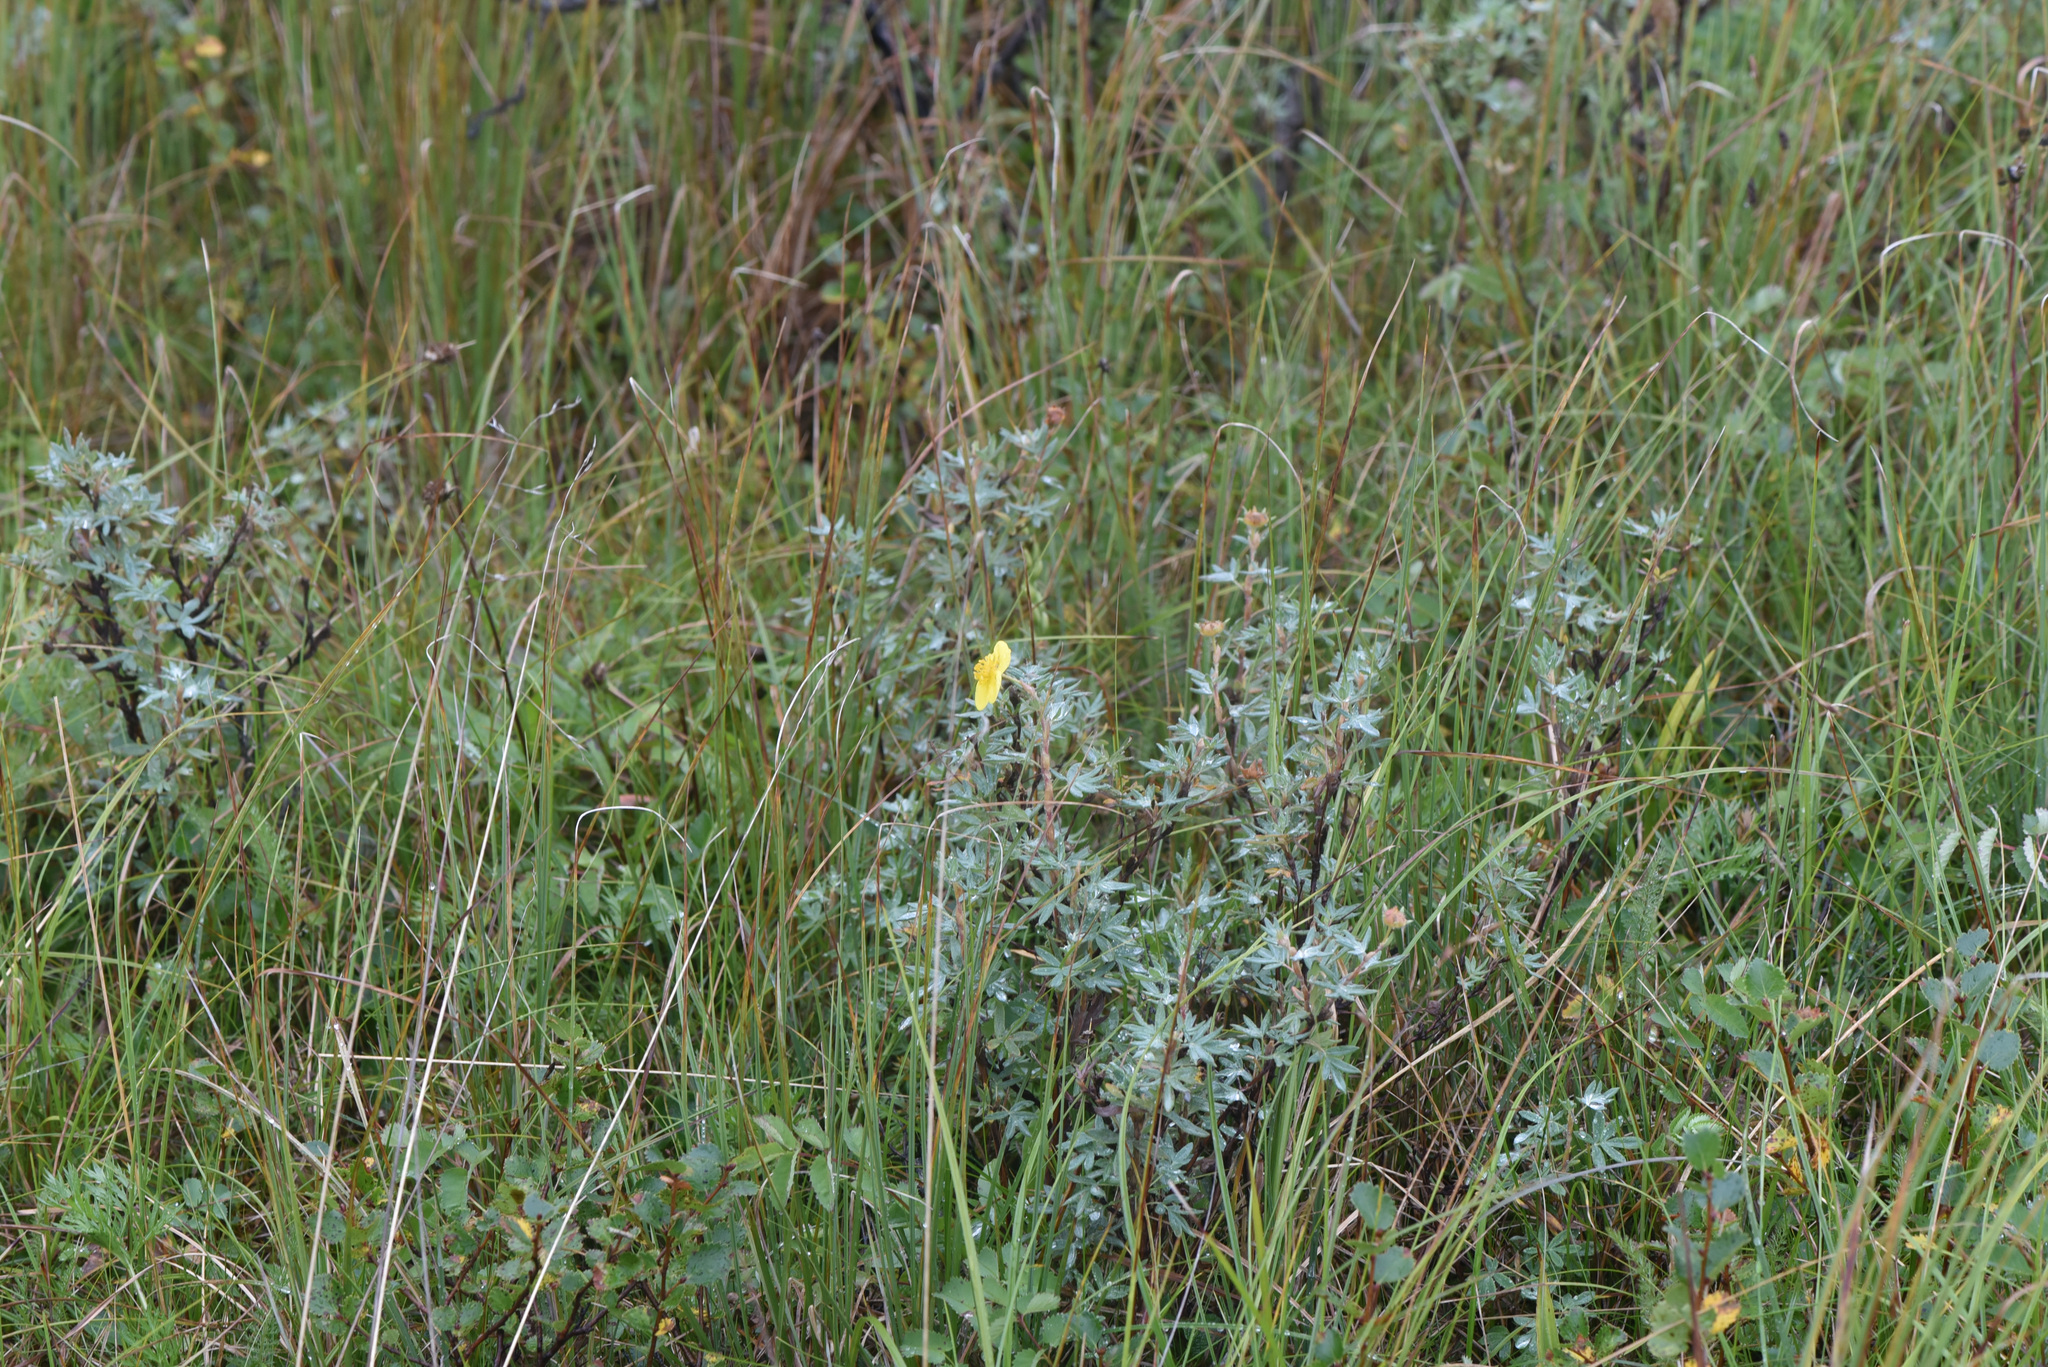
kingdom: Plantae
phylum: Tracheophyta
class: Magnoliopsida
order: Rosales
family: Rosaceae
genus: Dasiphora
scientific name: Dasiphora fruticosa
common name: Shrubby cinquefoil
